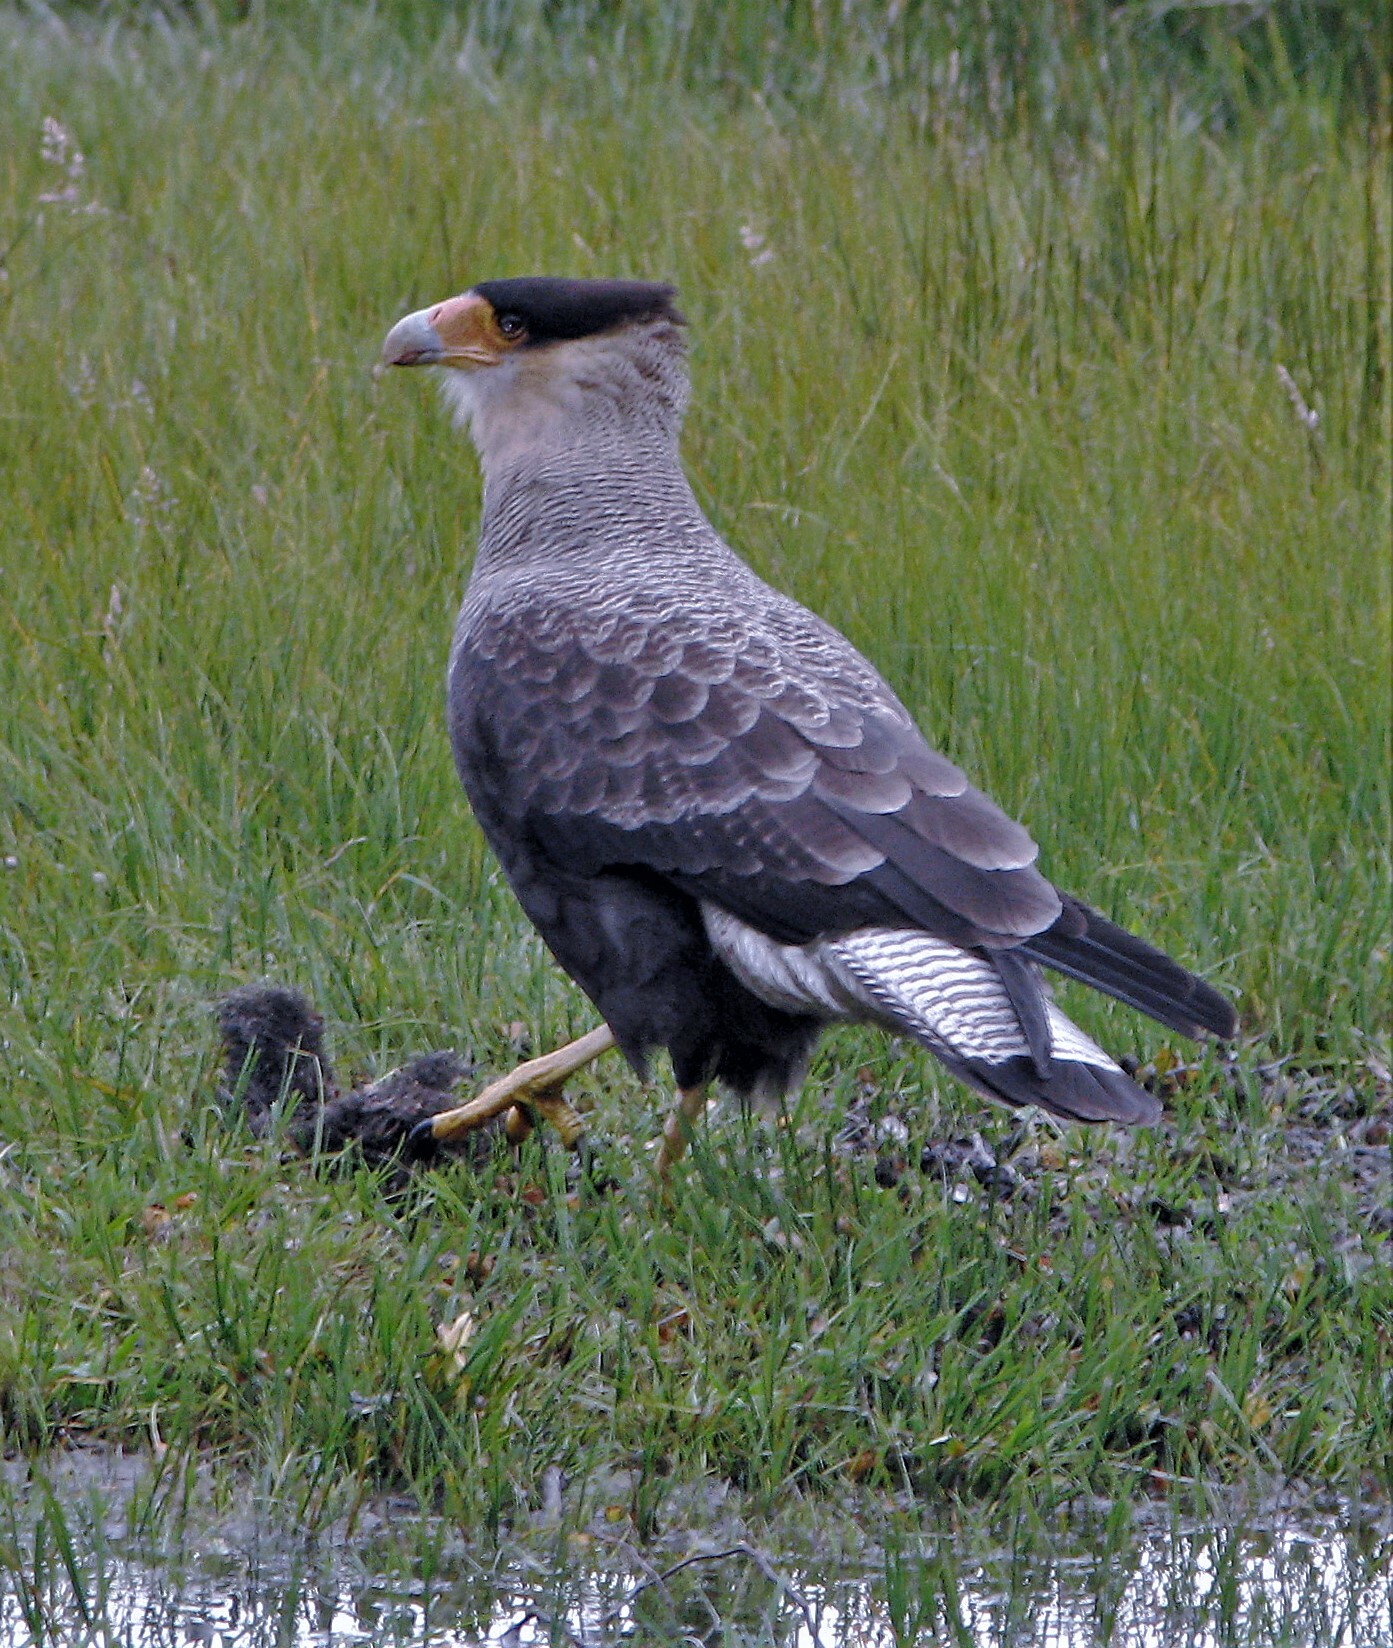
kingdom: Animalia
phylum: Chordata
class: Aves
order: Falconiformes
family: Falconidae
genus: Caracara
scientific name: Caracara plancus
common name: Southern caracara
